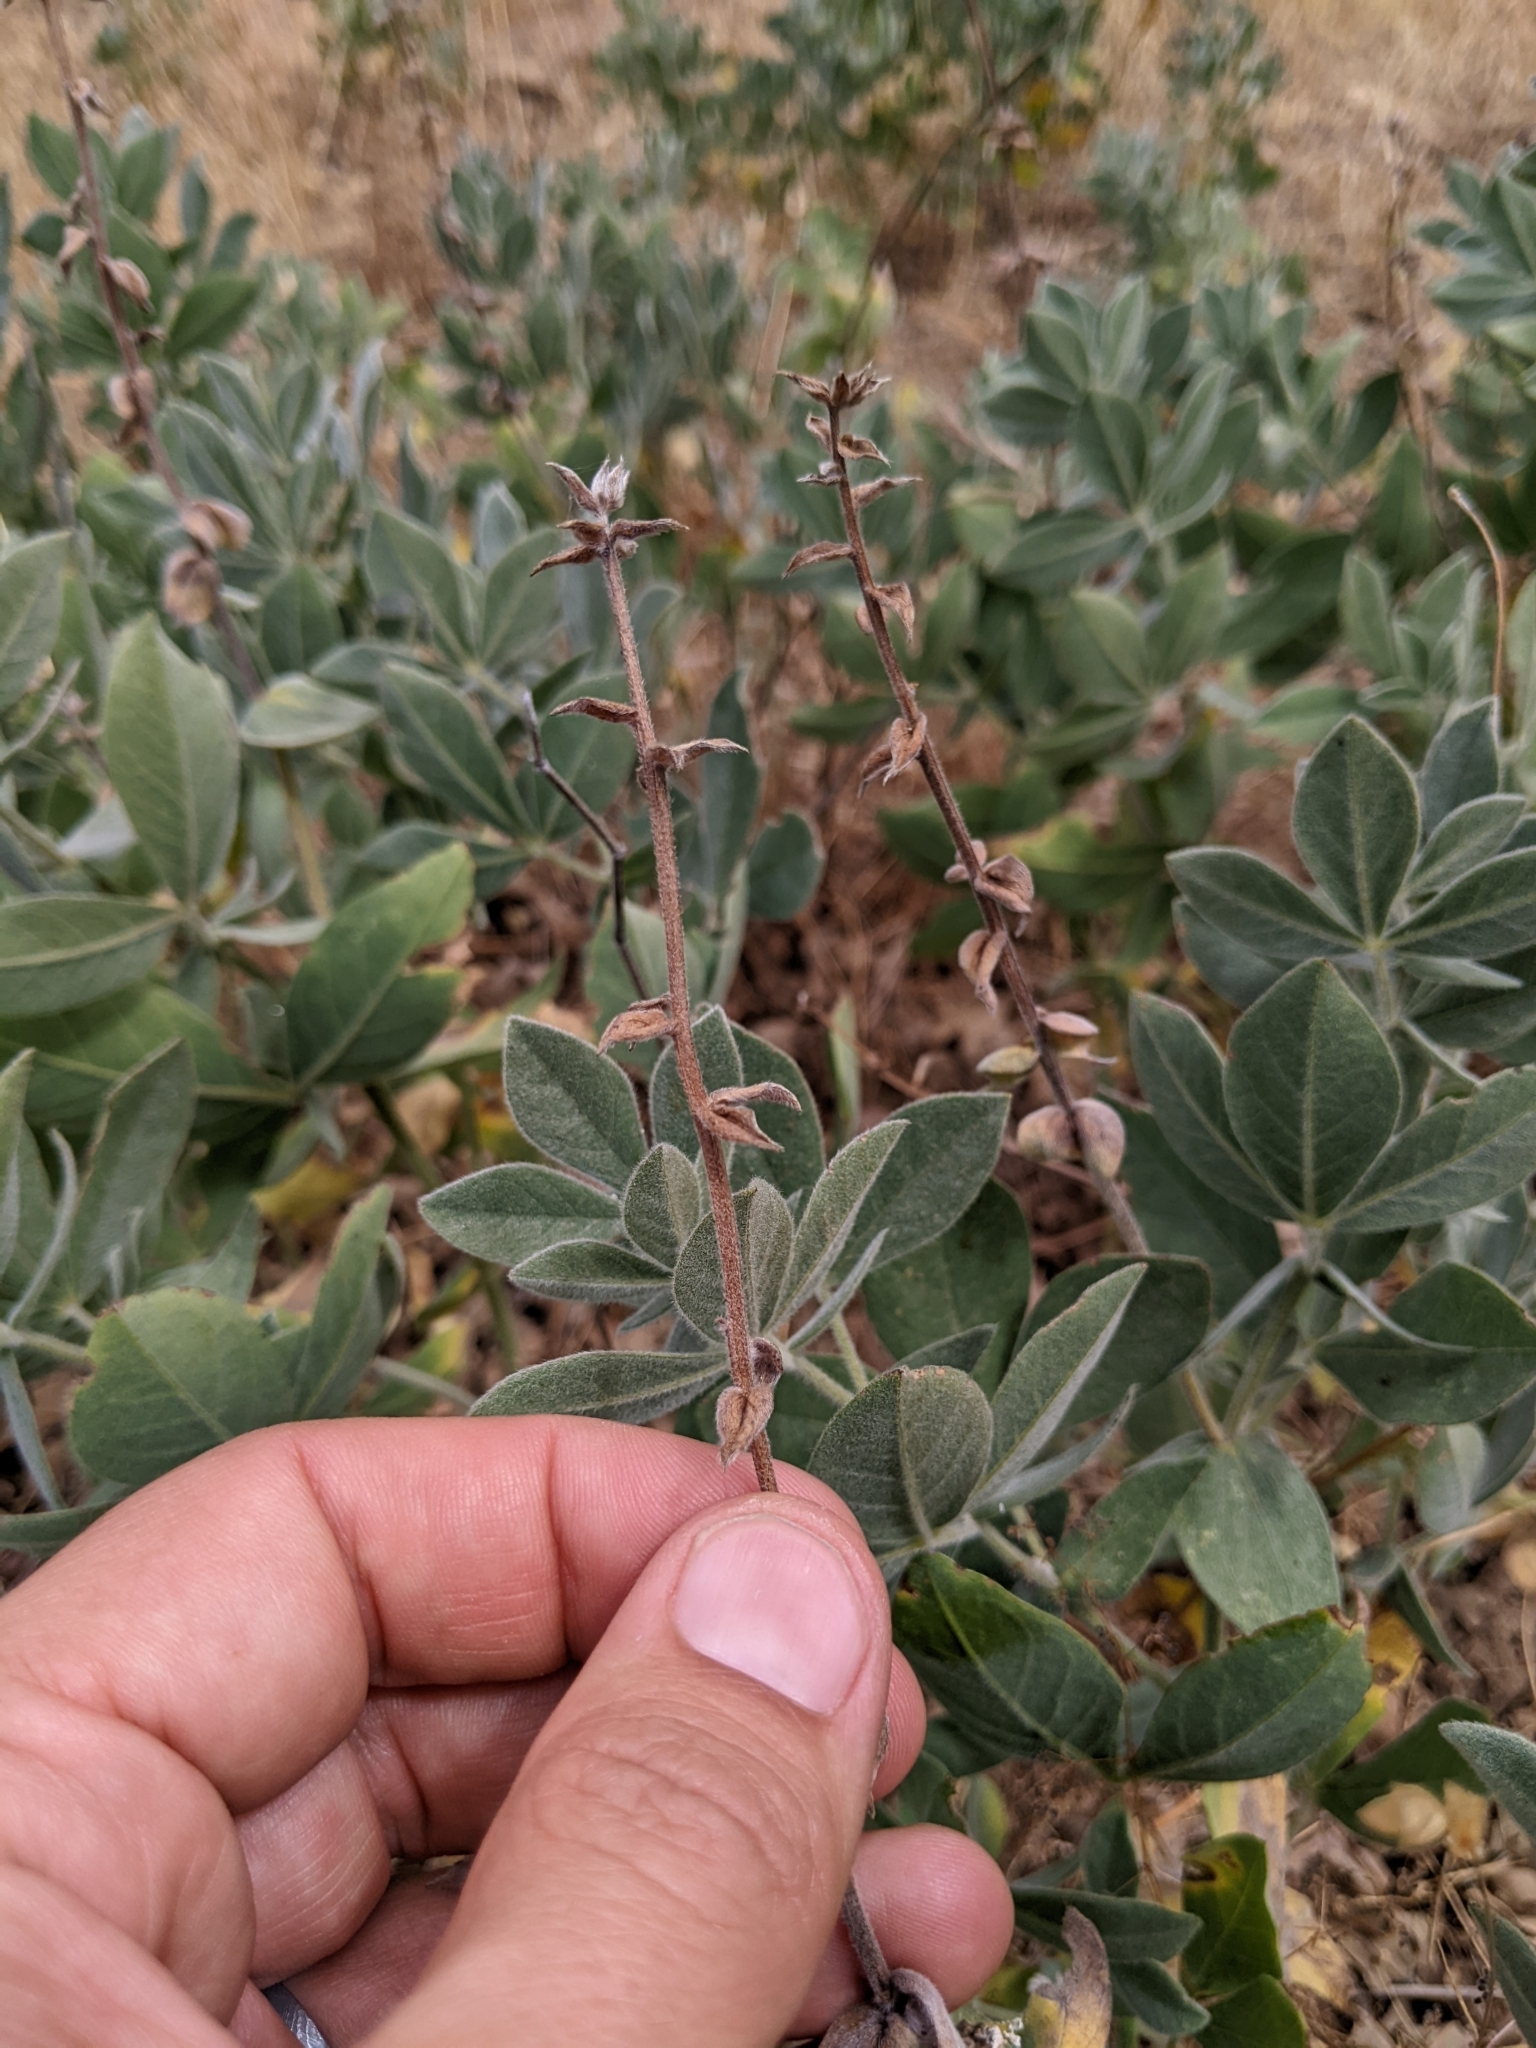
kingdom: Plantae
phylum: Tracheophyta
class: Magnoliopsida
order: Fabales
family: Fabaceae
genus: Thermopsis
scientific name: Thermopsis californica
